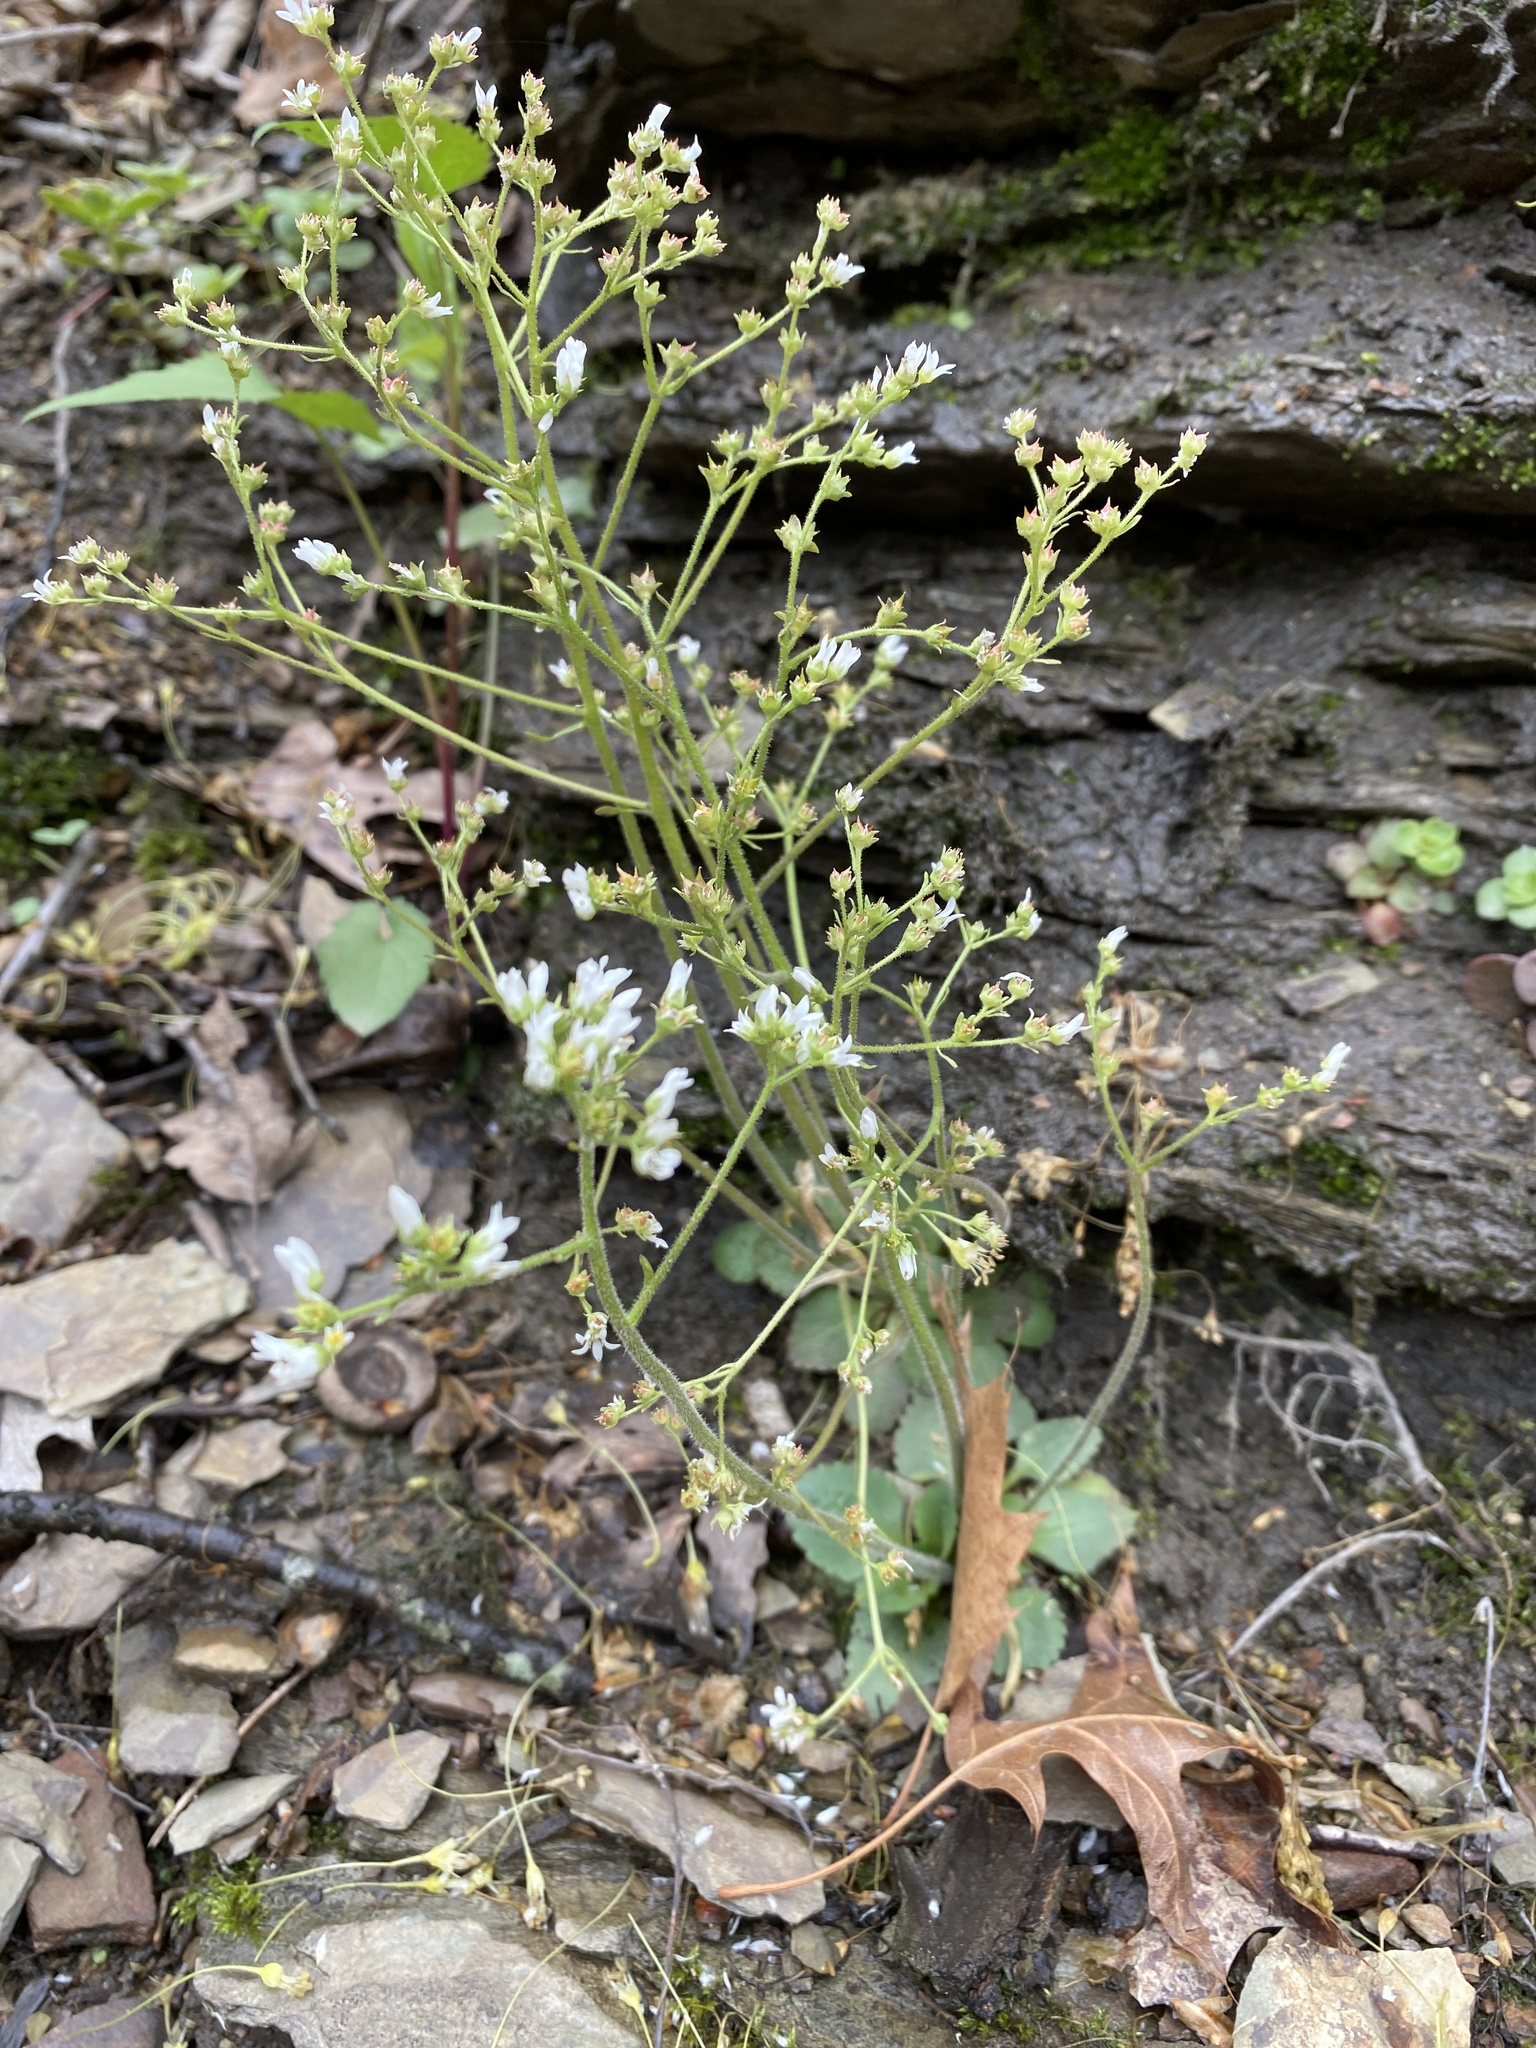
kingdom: Plantae
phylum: Tracheophyta
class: Magnoliopsida
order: Saxifragales
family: Saxifragaceae
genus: Micranthes
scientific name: Micranthes virginiensis
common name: Early saxifrage
